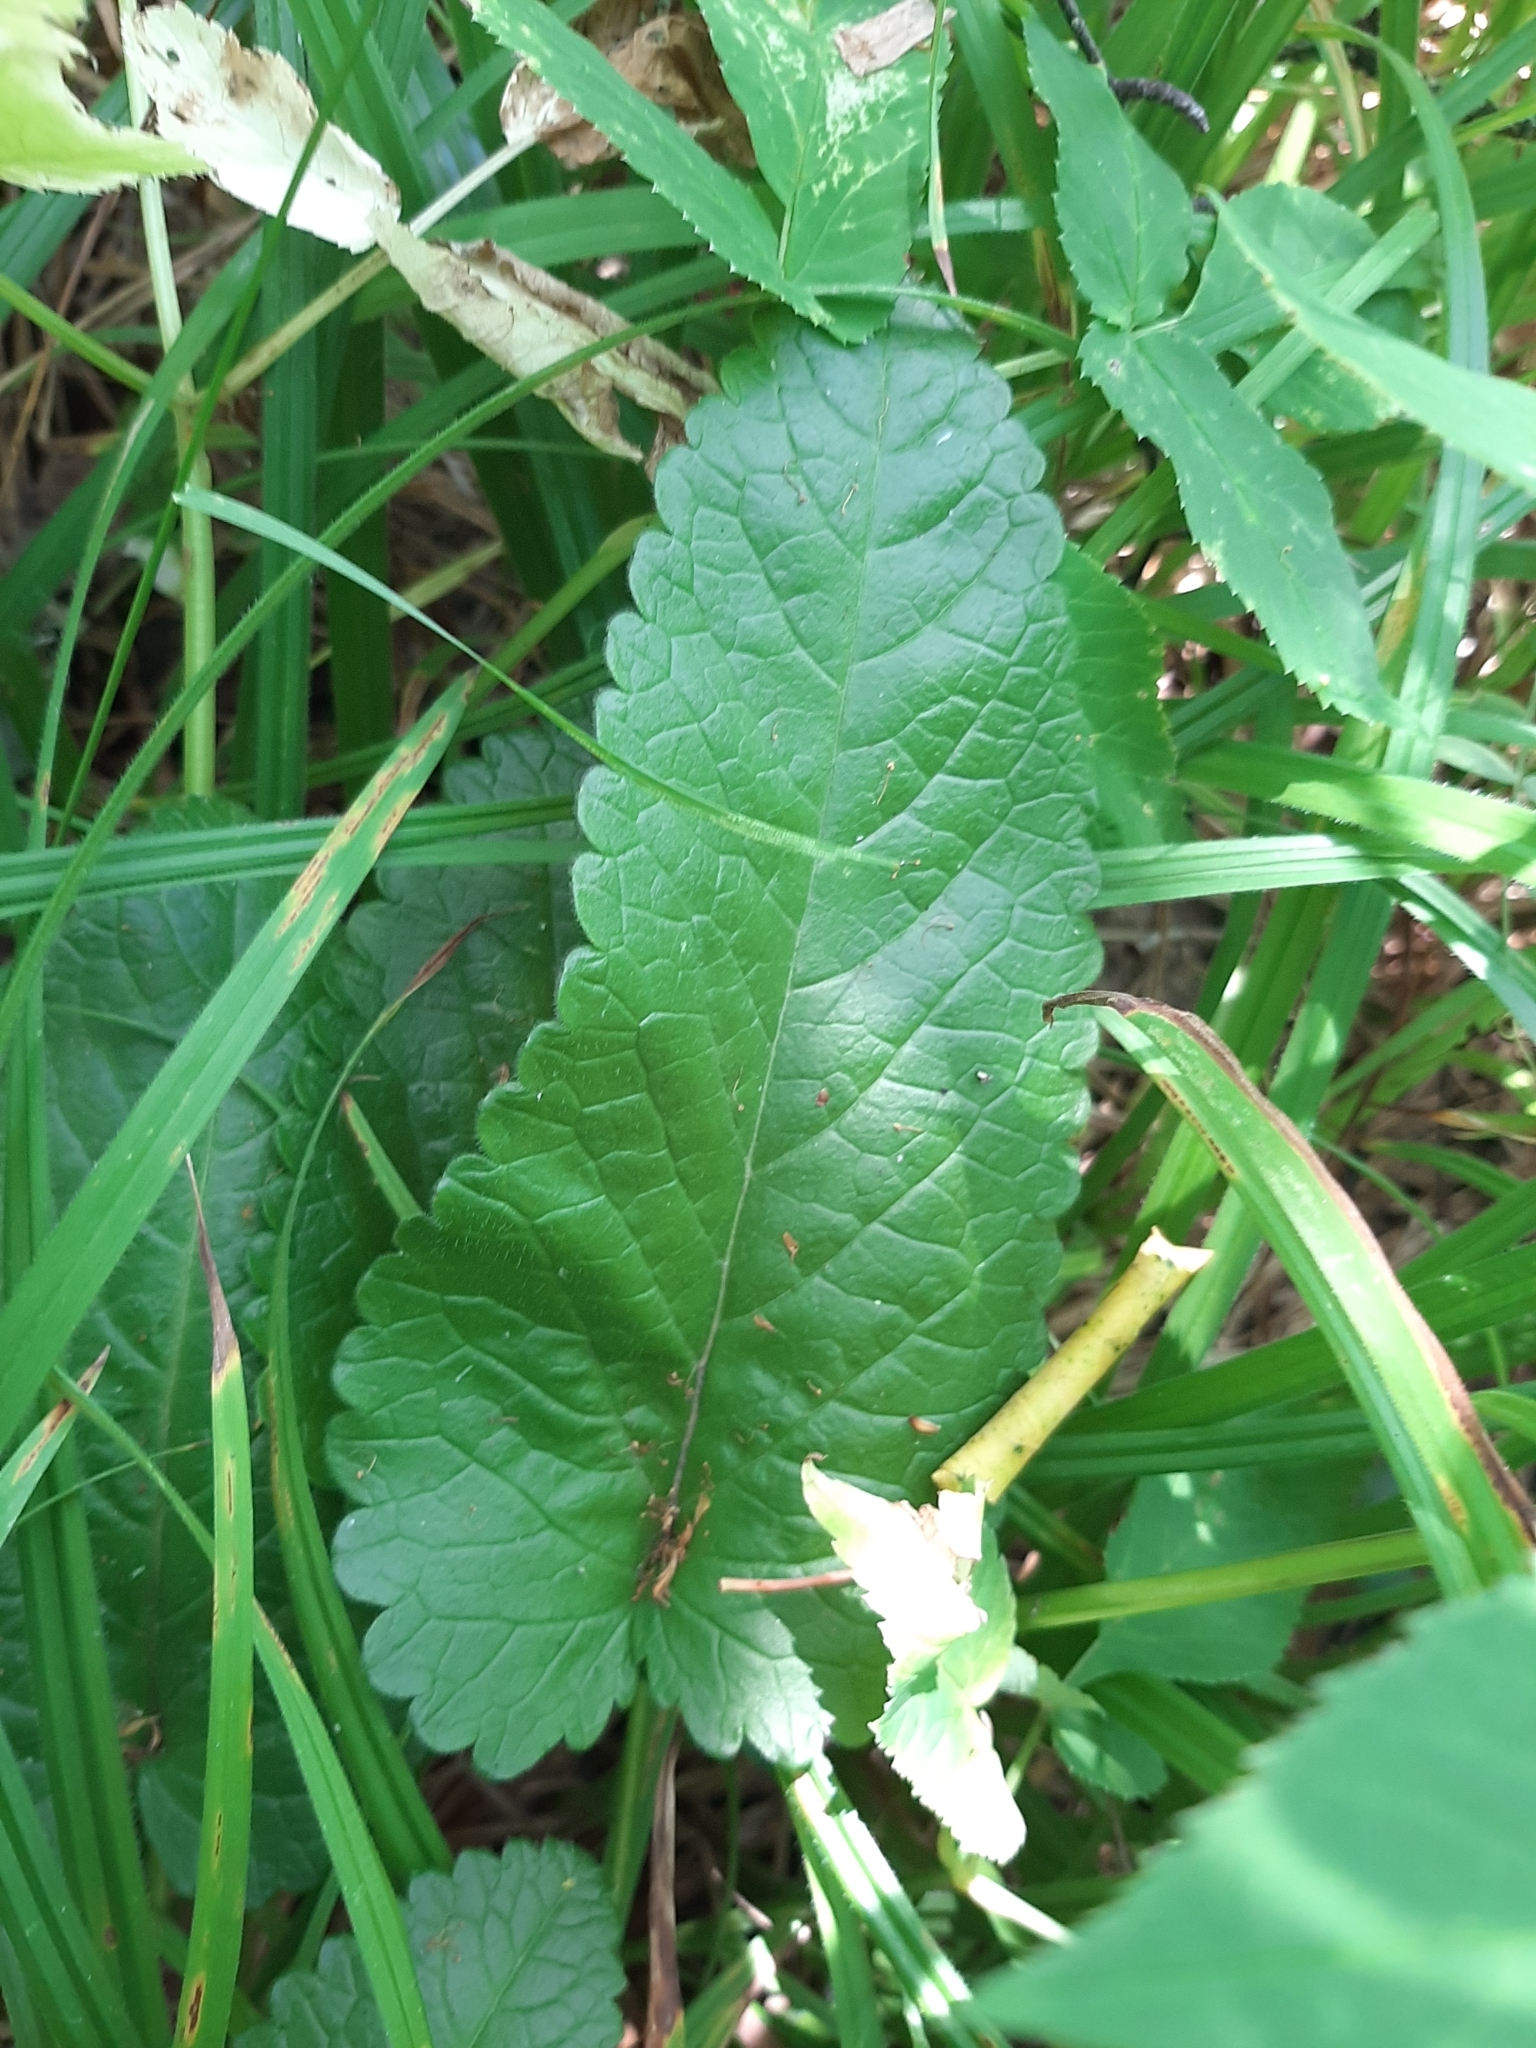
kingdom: Plantae
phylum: Tracheophyta
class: Magnoliopsida
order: Lamiales
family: Lamiaceae
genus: Betonica
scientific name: Betonica officinalis
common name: Bishop's-wort
